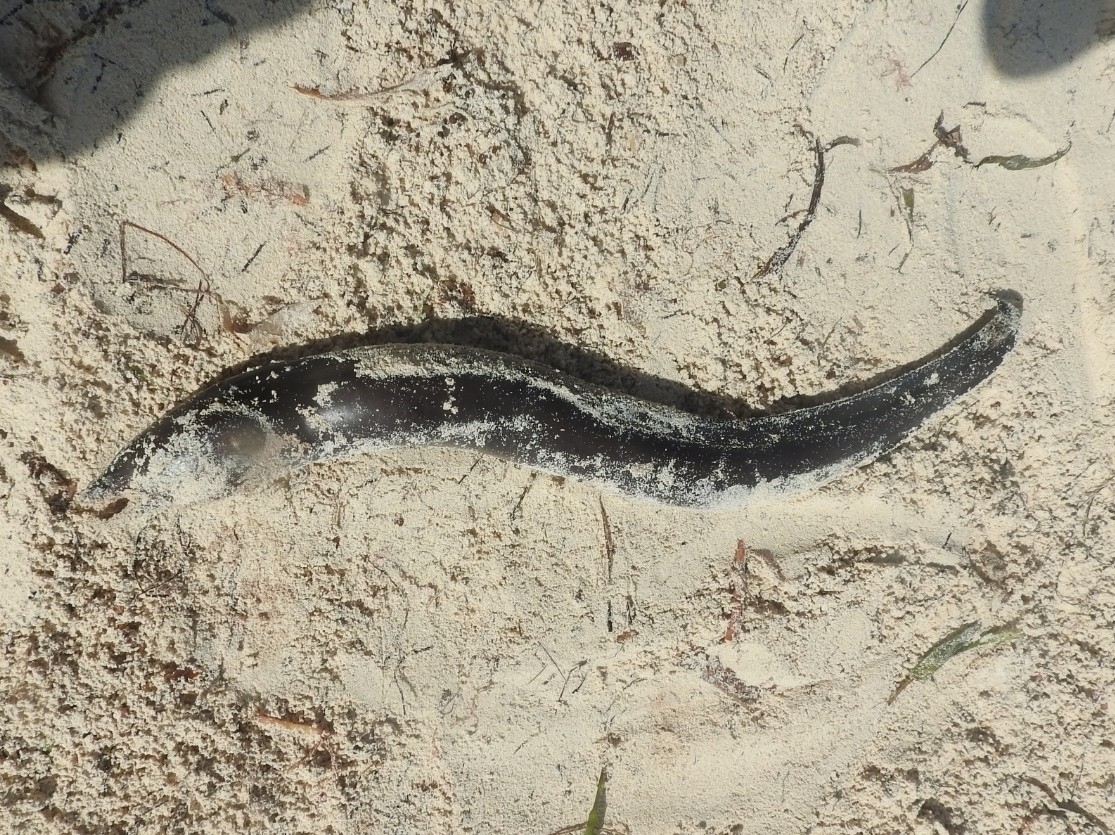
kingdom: Animalia
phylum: Chordata
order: Anguilliformes
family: Muraenidae
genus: Enchelycore
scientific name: Enchelycore nigricans
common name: Viper moray
